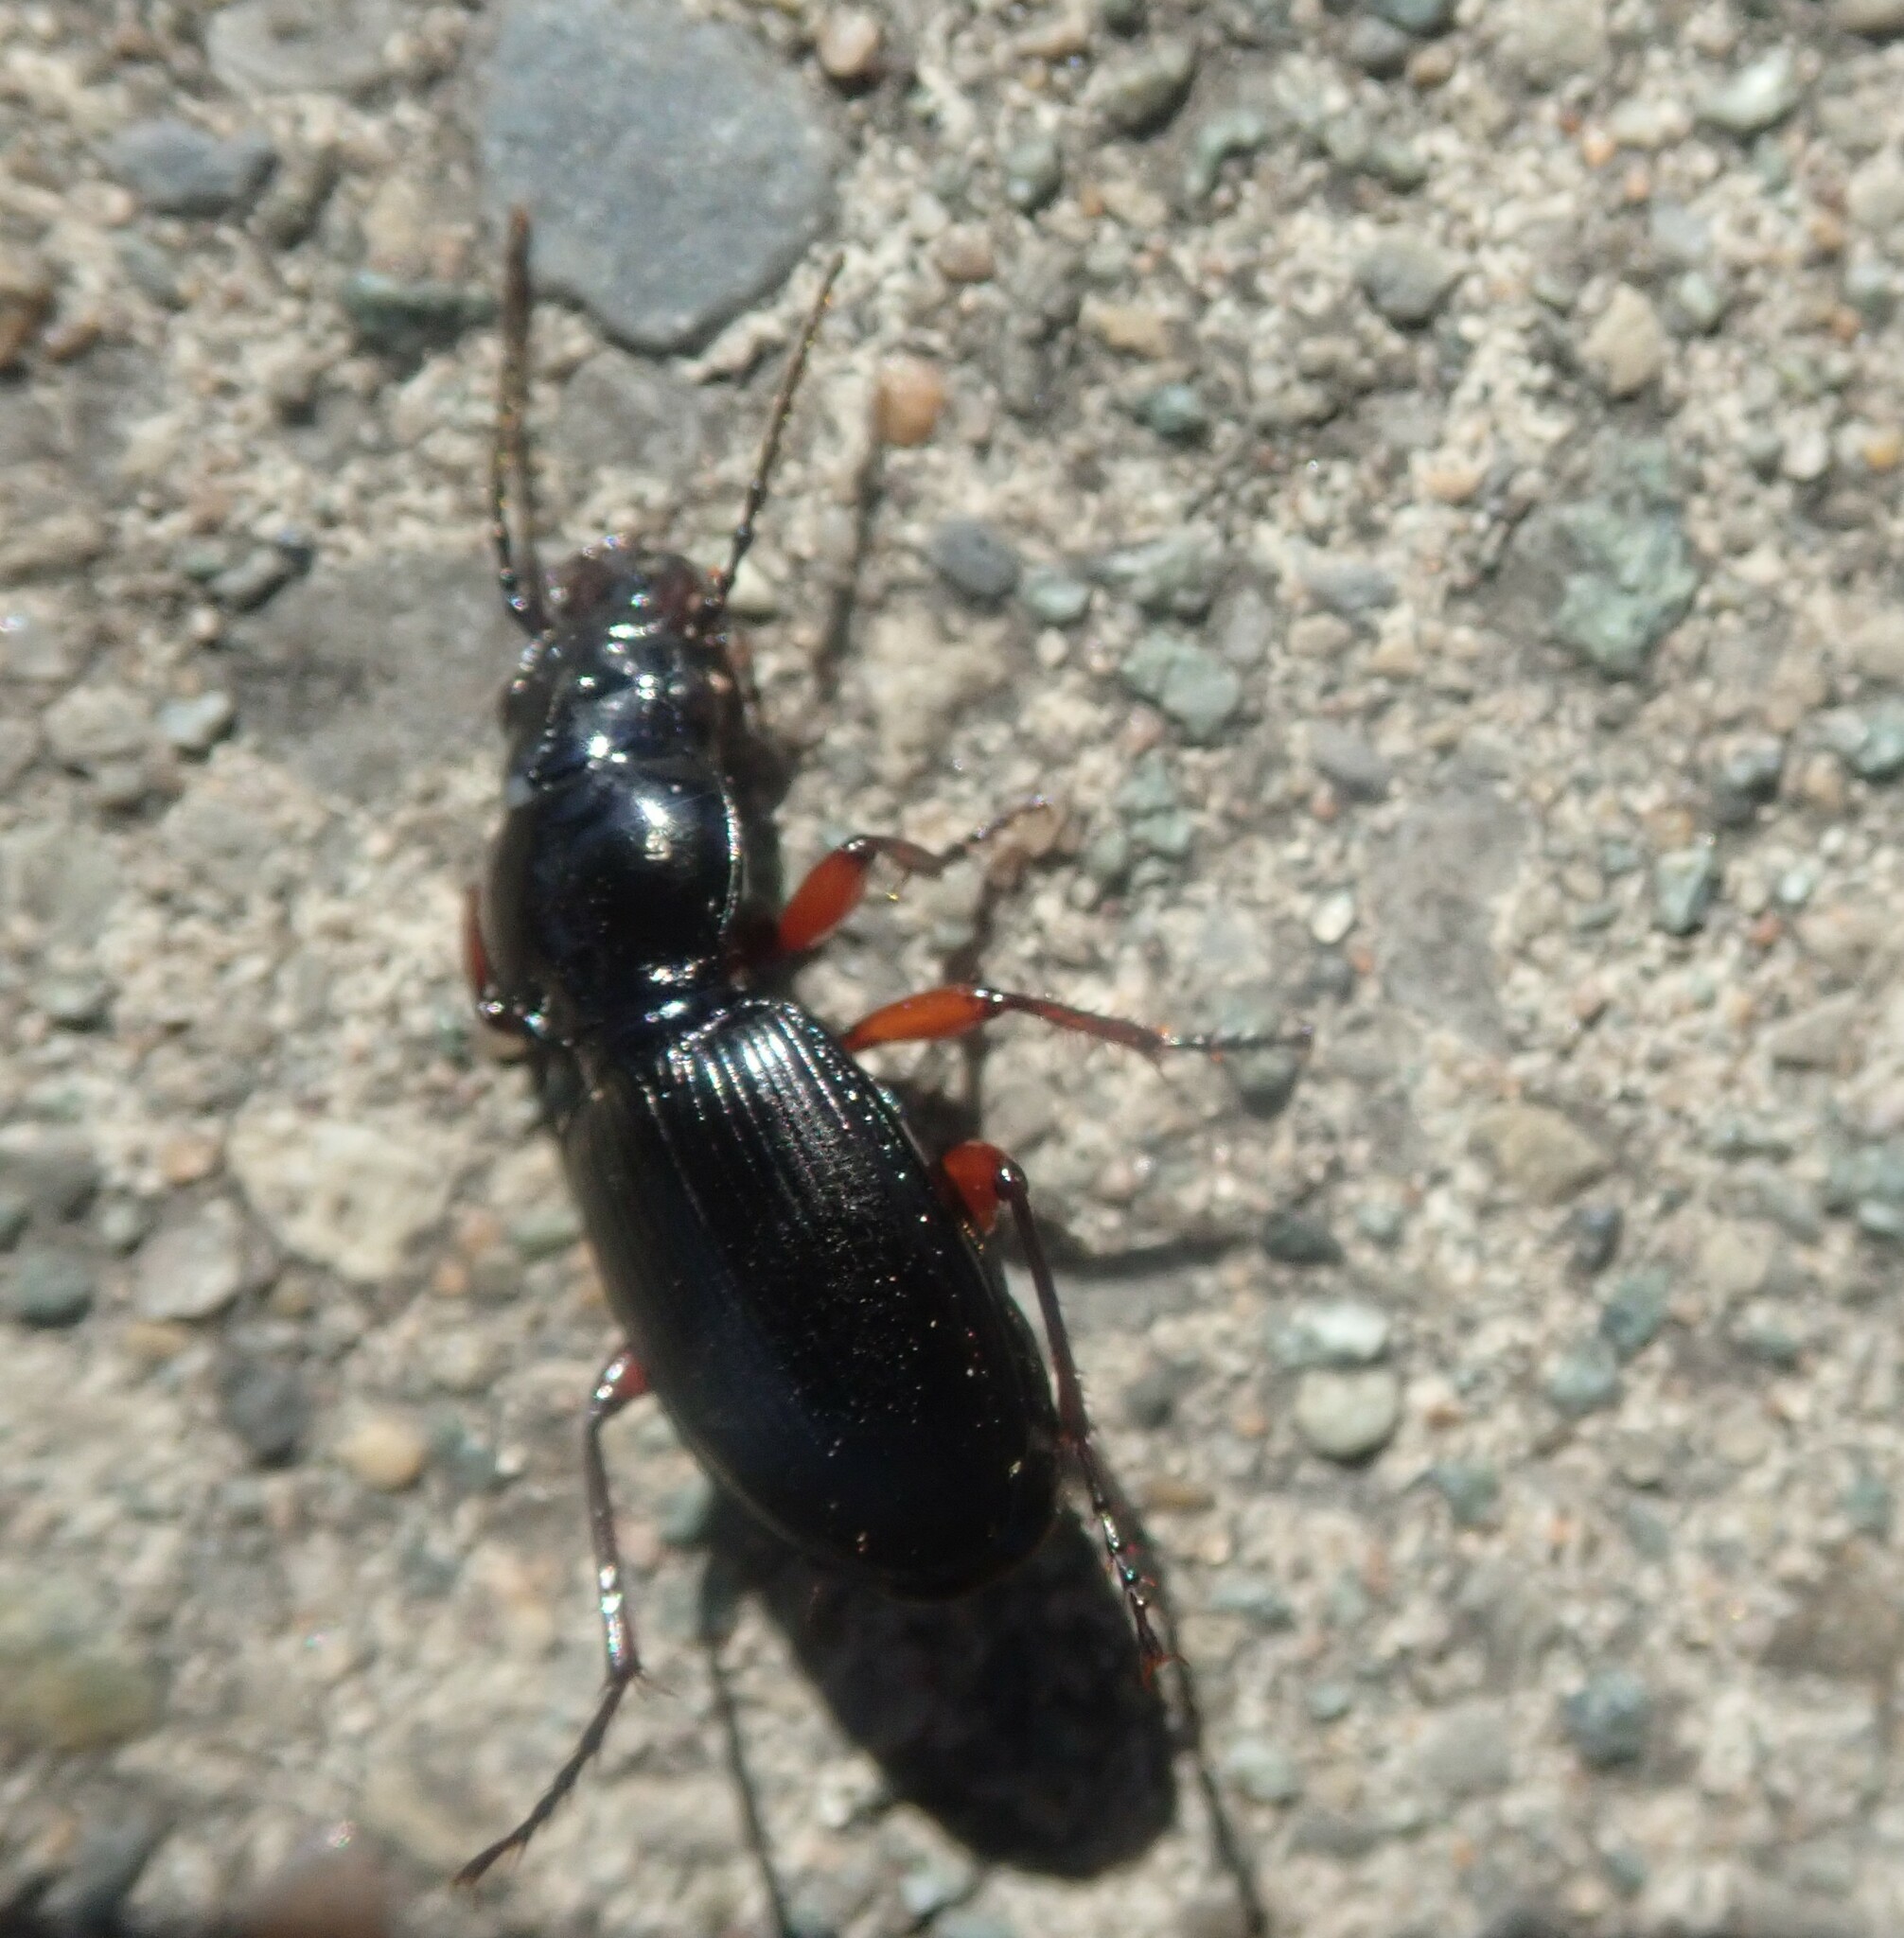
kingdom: Animalia
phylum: Arthropoda
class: Insecta
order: Coleoptera
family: Carabidae
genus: Pterostichus
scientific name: Pterostichus madidus
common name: Black clock
